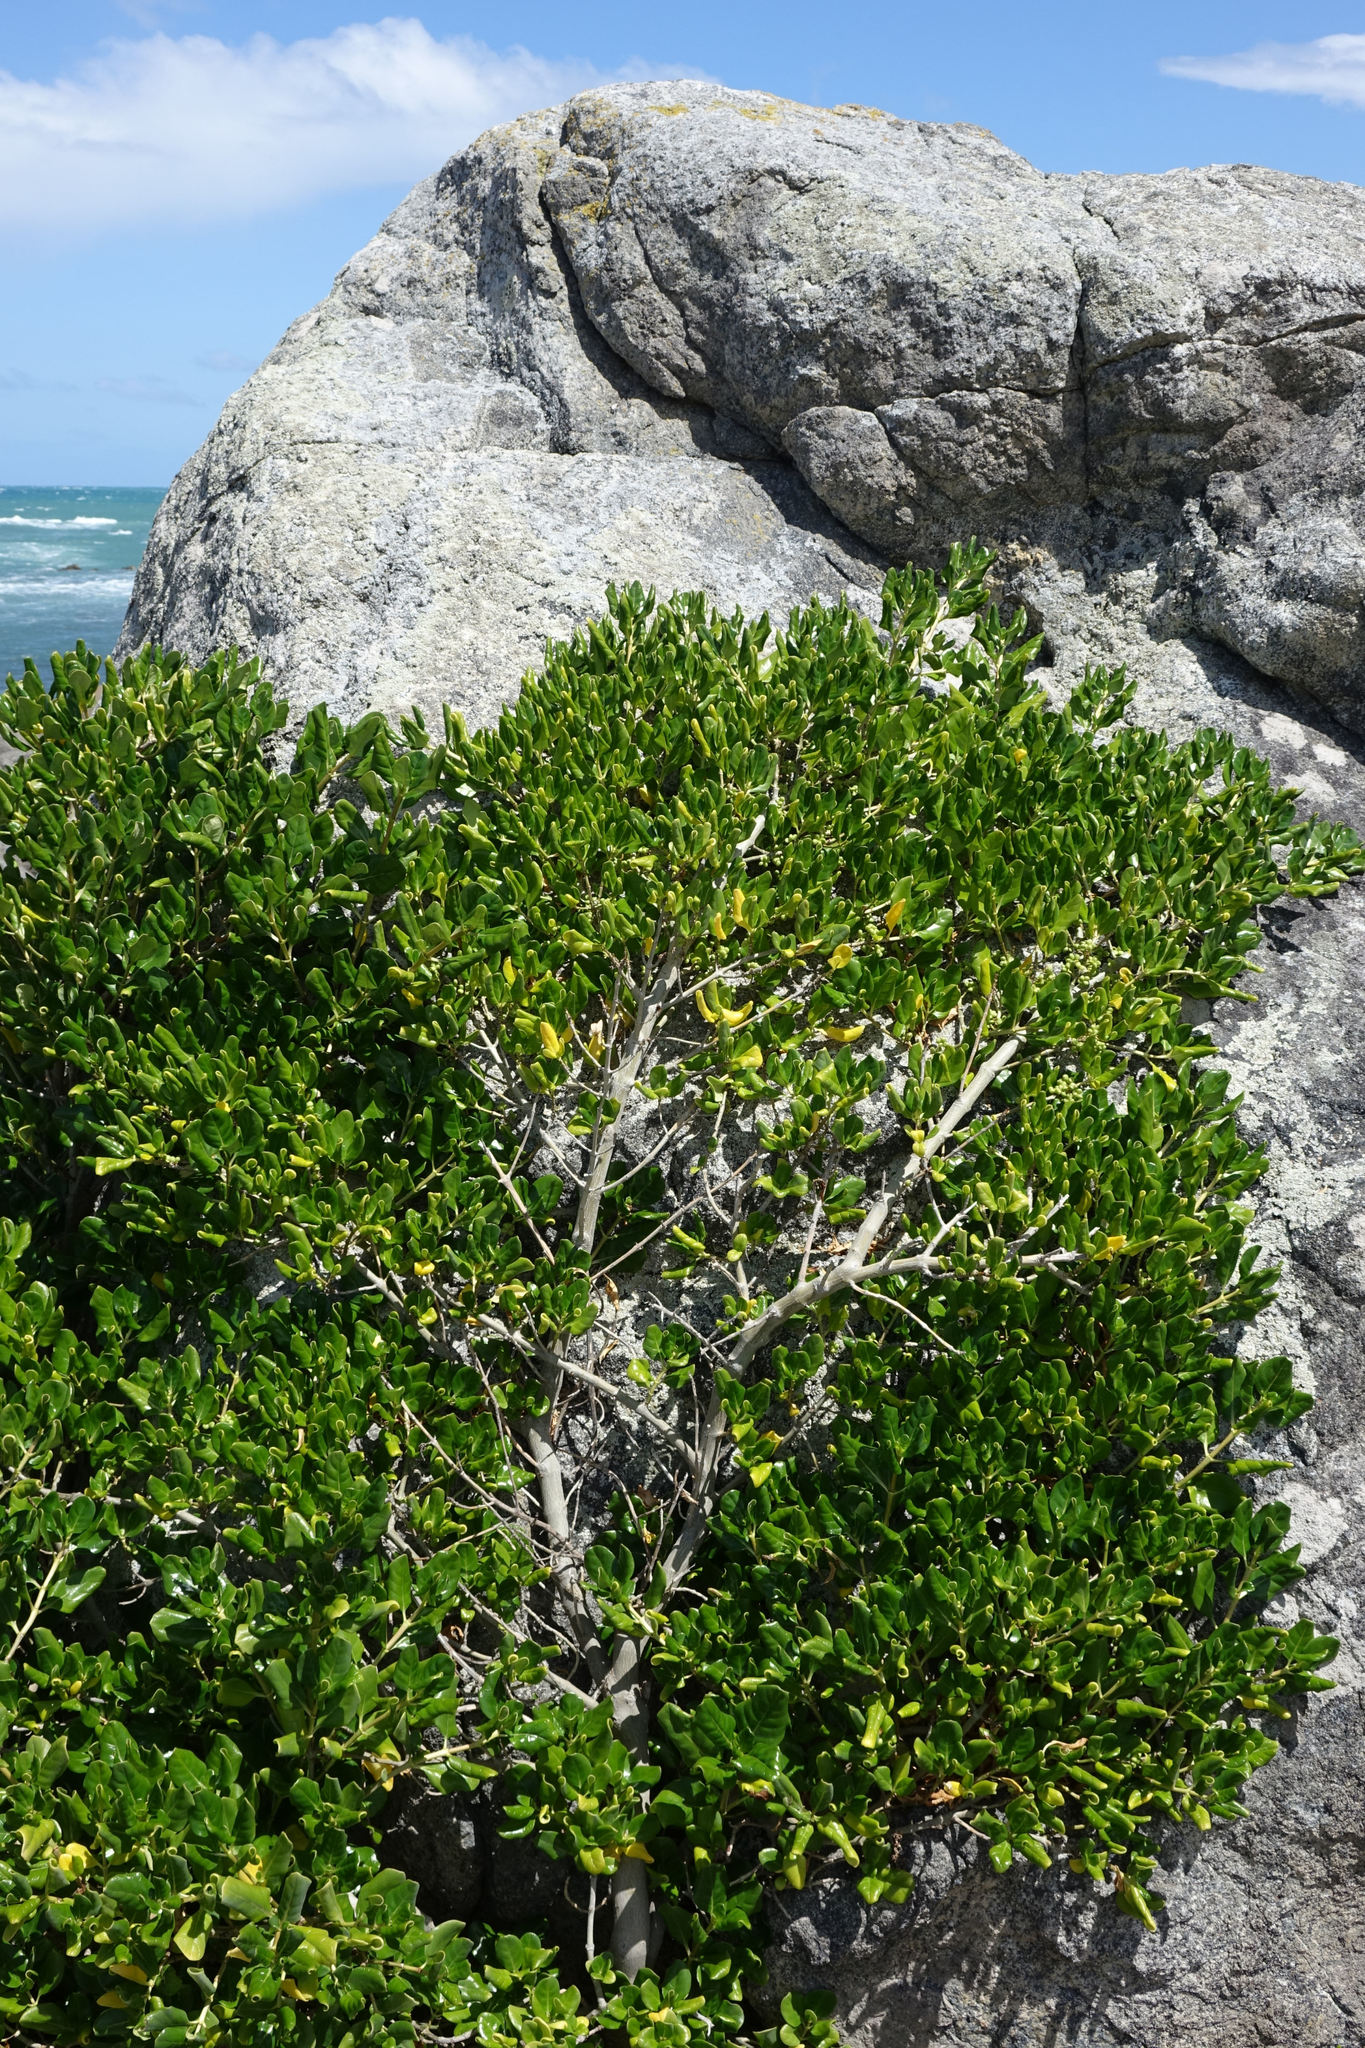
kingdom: Plantae
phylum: Tracheophyta
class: Magnoliopsida
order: Gentianales
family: Rubiaceae
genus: Coprosma
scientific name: Coprosma repens
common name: Tree bedstraw
